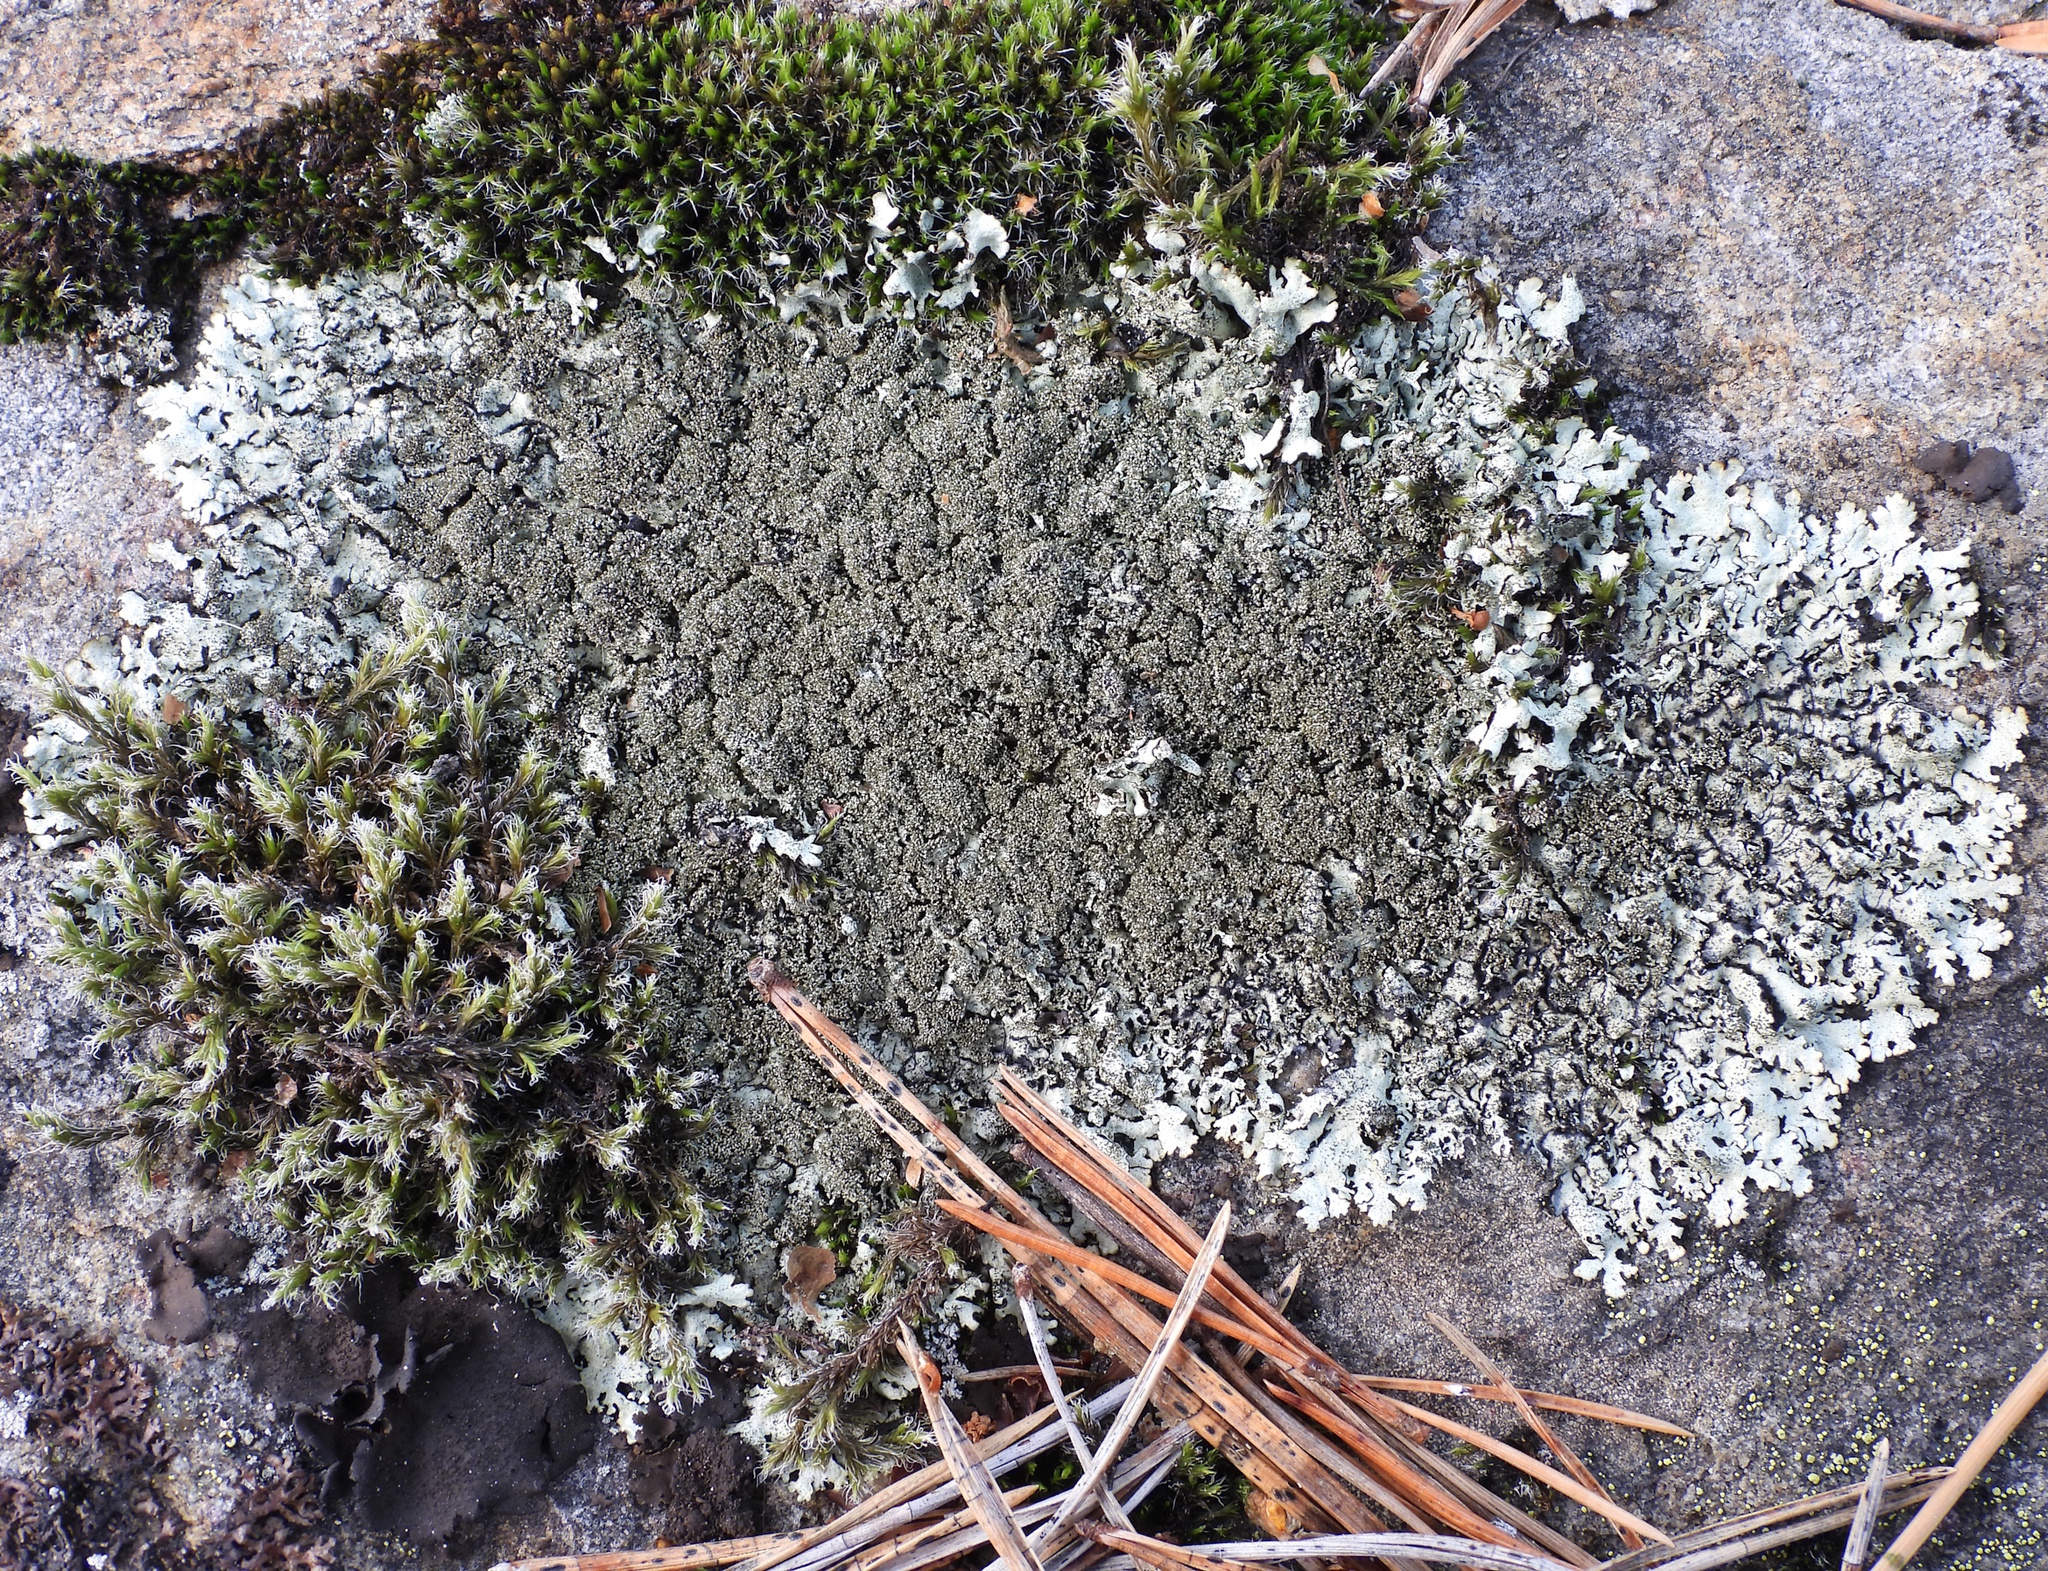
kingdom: Fungi
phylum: Ascomycota
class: Lecanoromycetes
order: Lecanorales
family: Parmeliaceae
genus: Xanthoparmelia
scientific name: Xanthoparmelia conspersa
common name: Peppered rock shield
